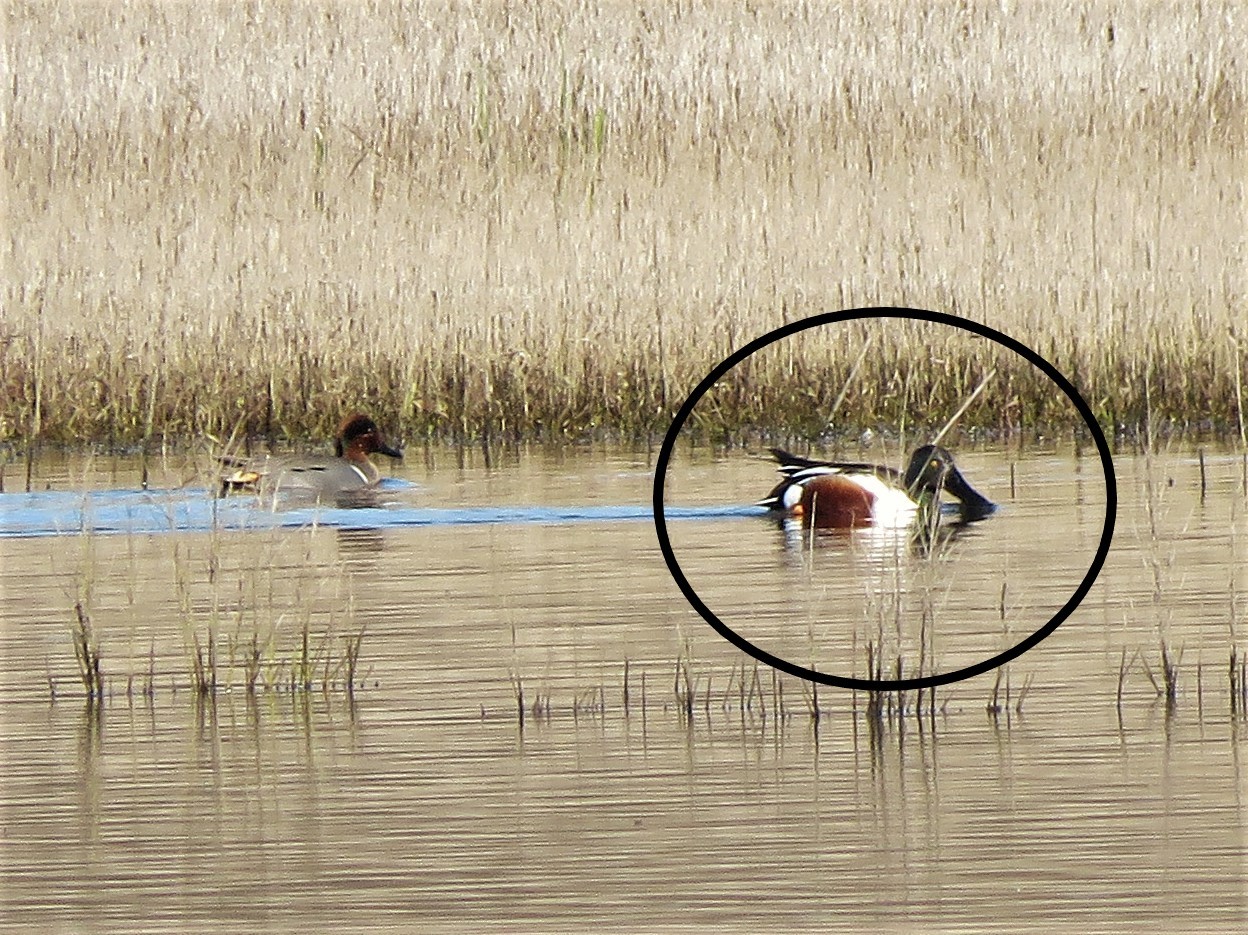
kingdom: Animalia
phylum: Chordata
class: Aves
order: Anseriformes
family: Anatidae
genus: Spatula
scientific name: Spatula clypeata
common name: Northern shoveler
